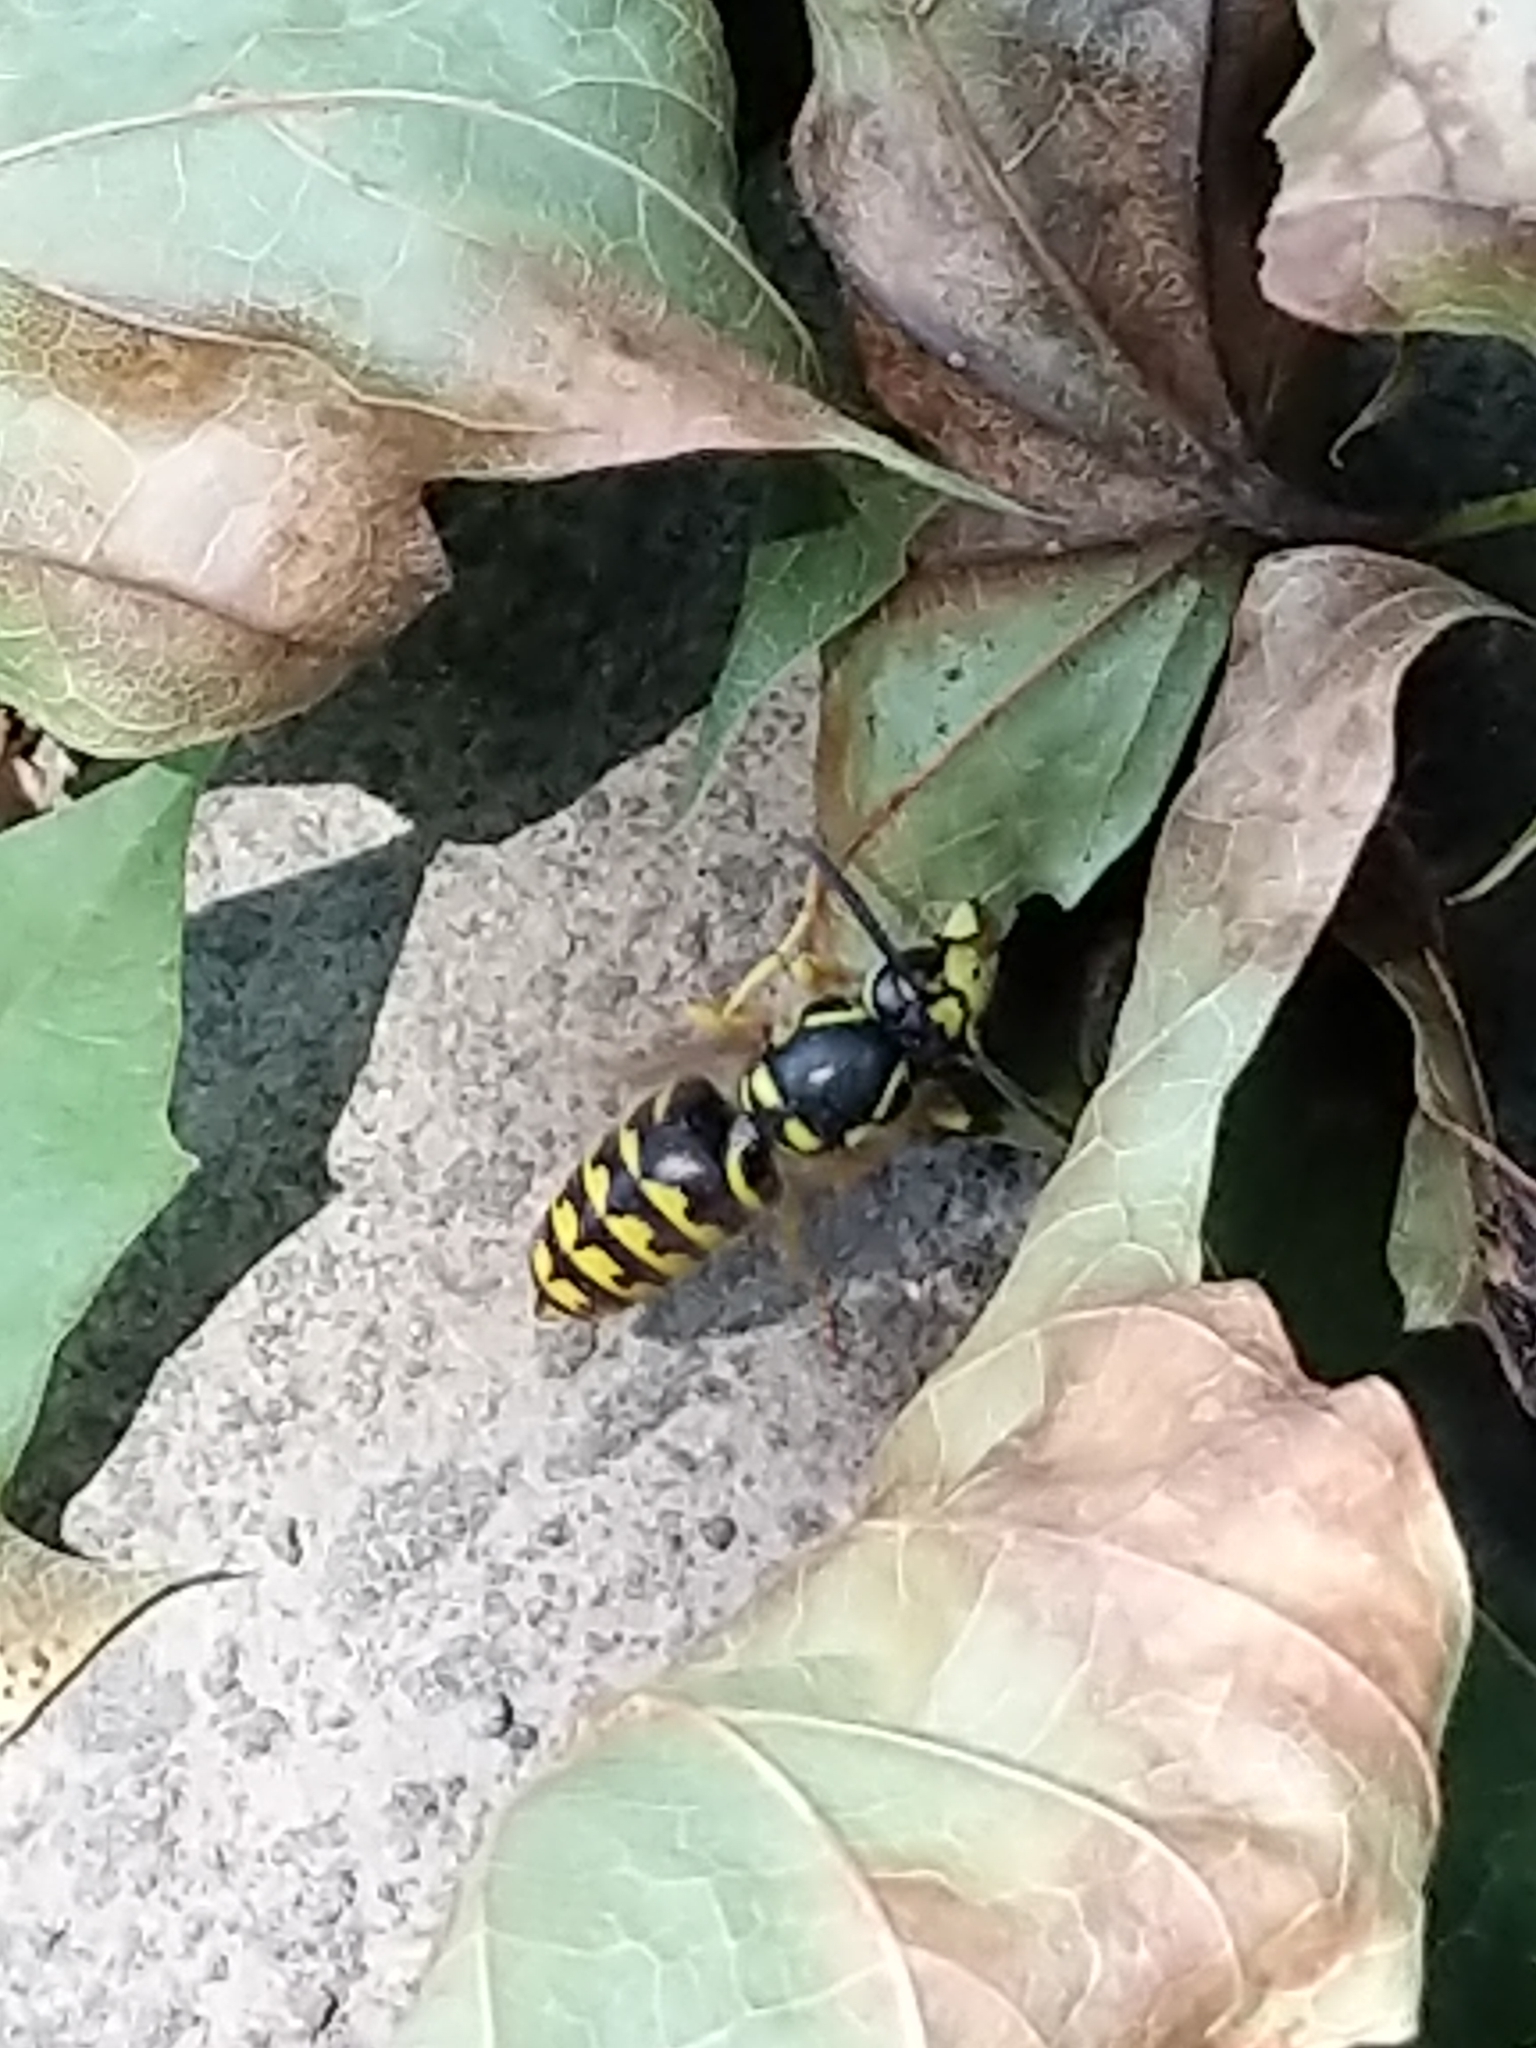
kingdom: Animalia
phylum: Arthropoda
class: Insecta
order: Hymenoptera
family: Vespidae
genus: Dolichovespula
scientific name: Dolichovespula arenaria
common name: Aerial yellowjacket
